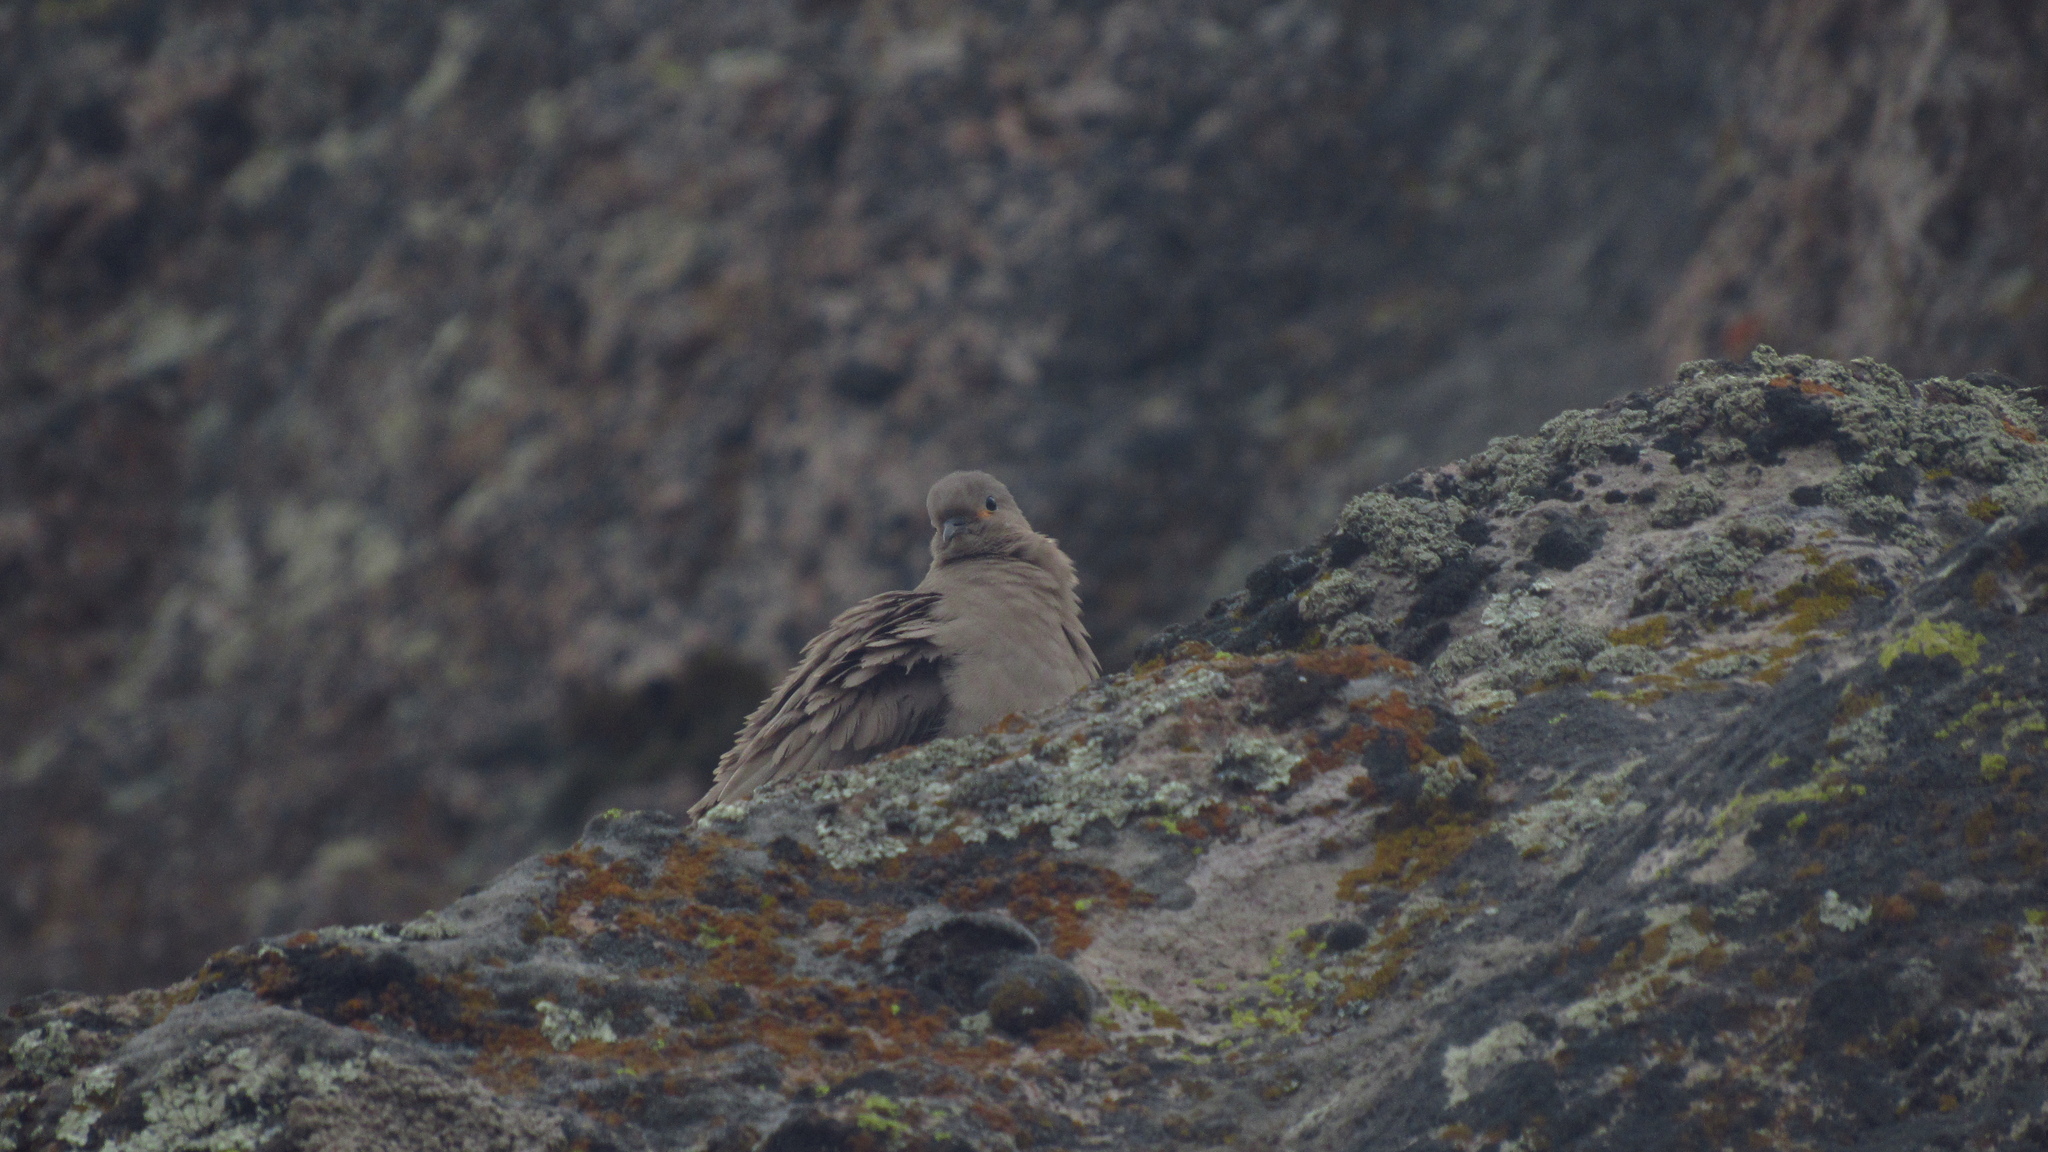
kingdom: Animalia
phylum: Chordata
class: Aves
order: Columbiformes
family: Columbidae
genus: Metriopelia
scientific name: Metriopelia melanoptera
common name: Black-winged ground dove
